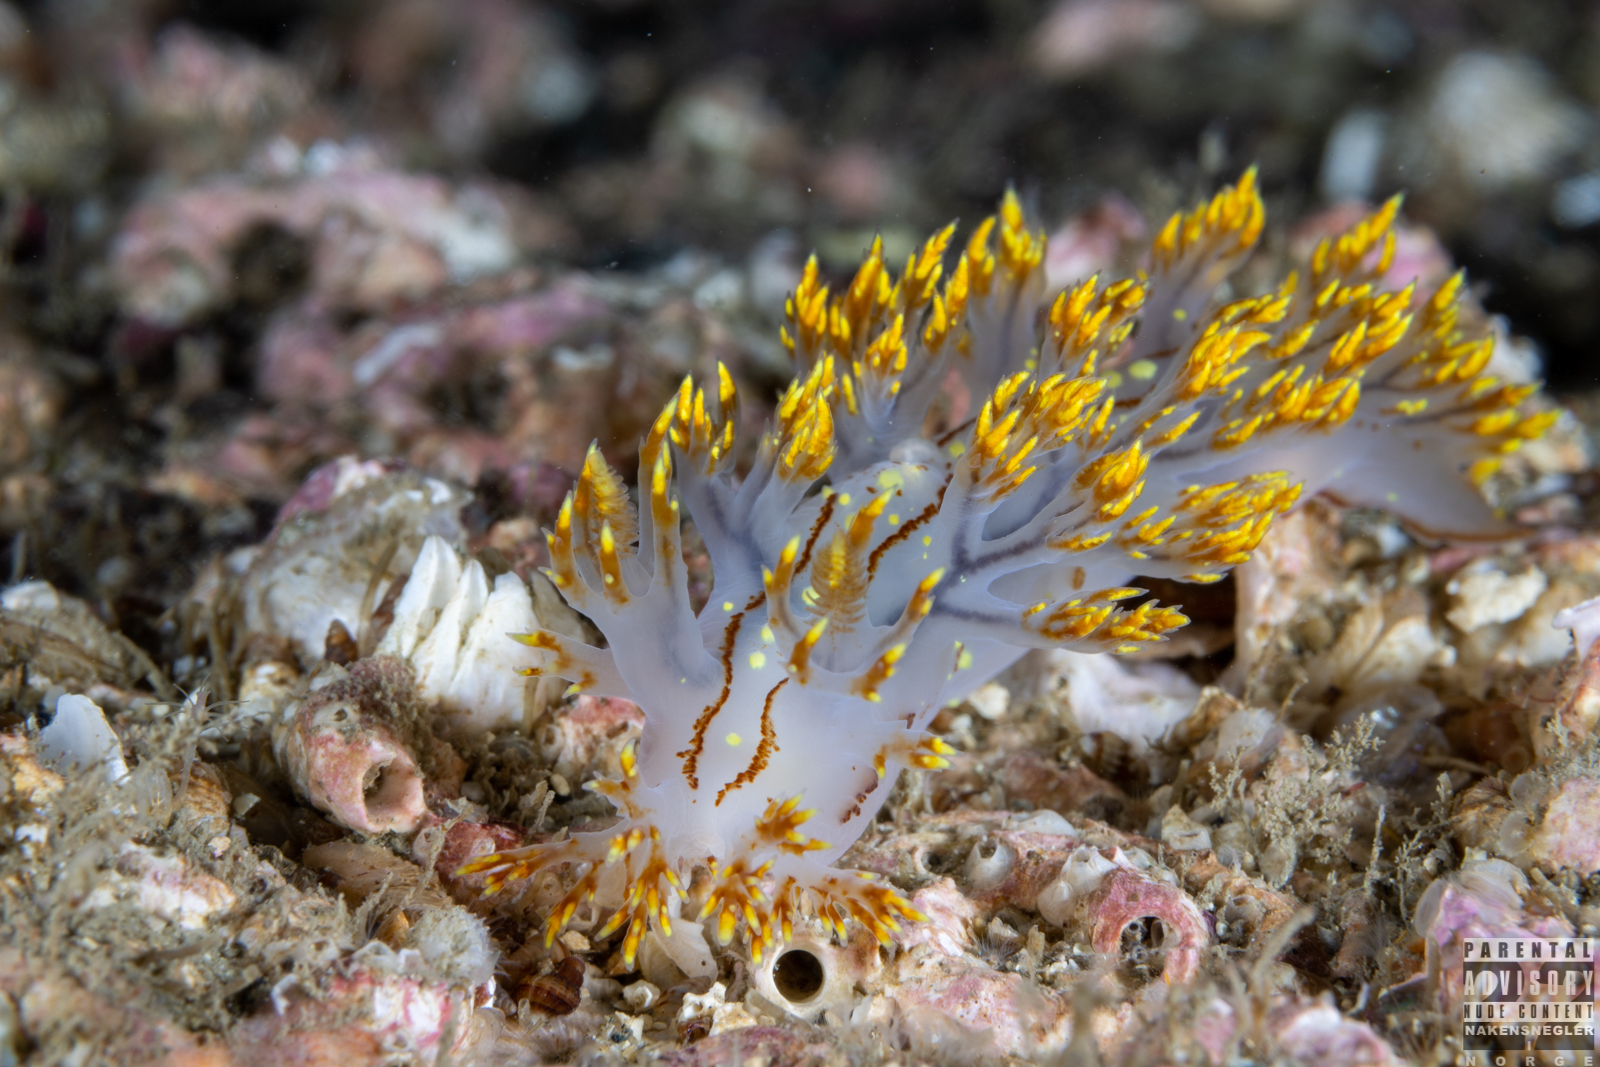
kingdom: Animalia
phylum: Mollusca
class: Gastropoda
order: Nudibranchia
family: Dendronotidae
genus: Dendronotus
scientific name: Dendronotus yrjargul
